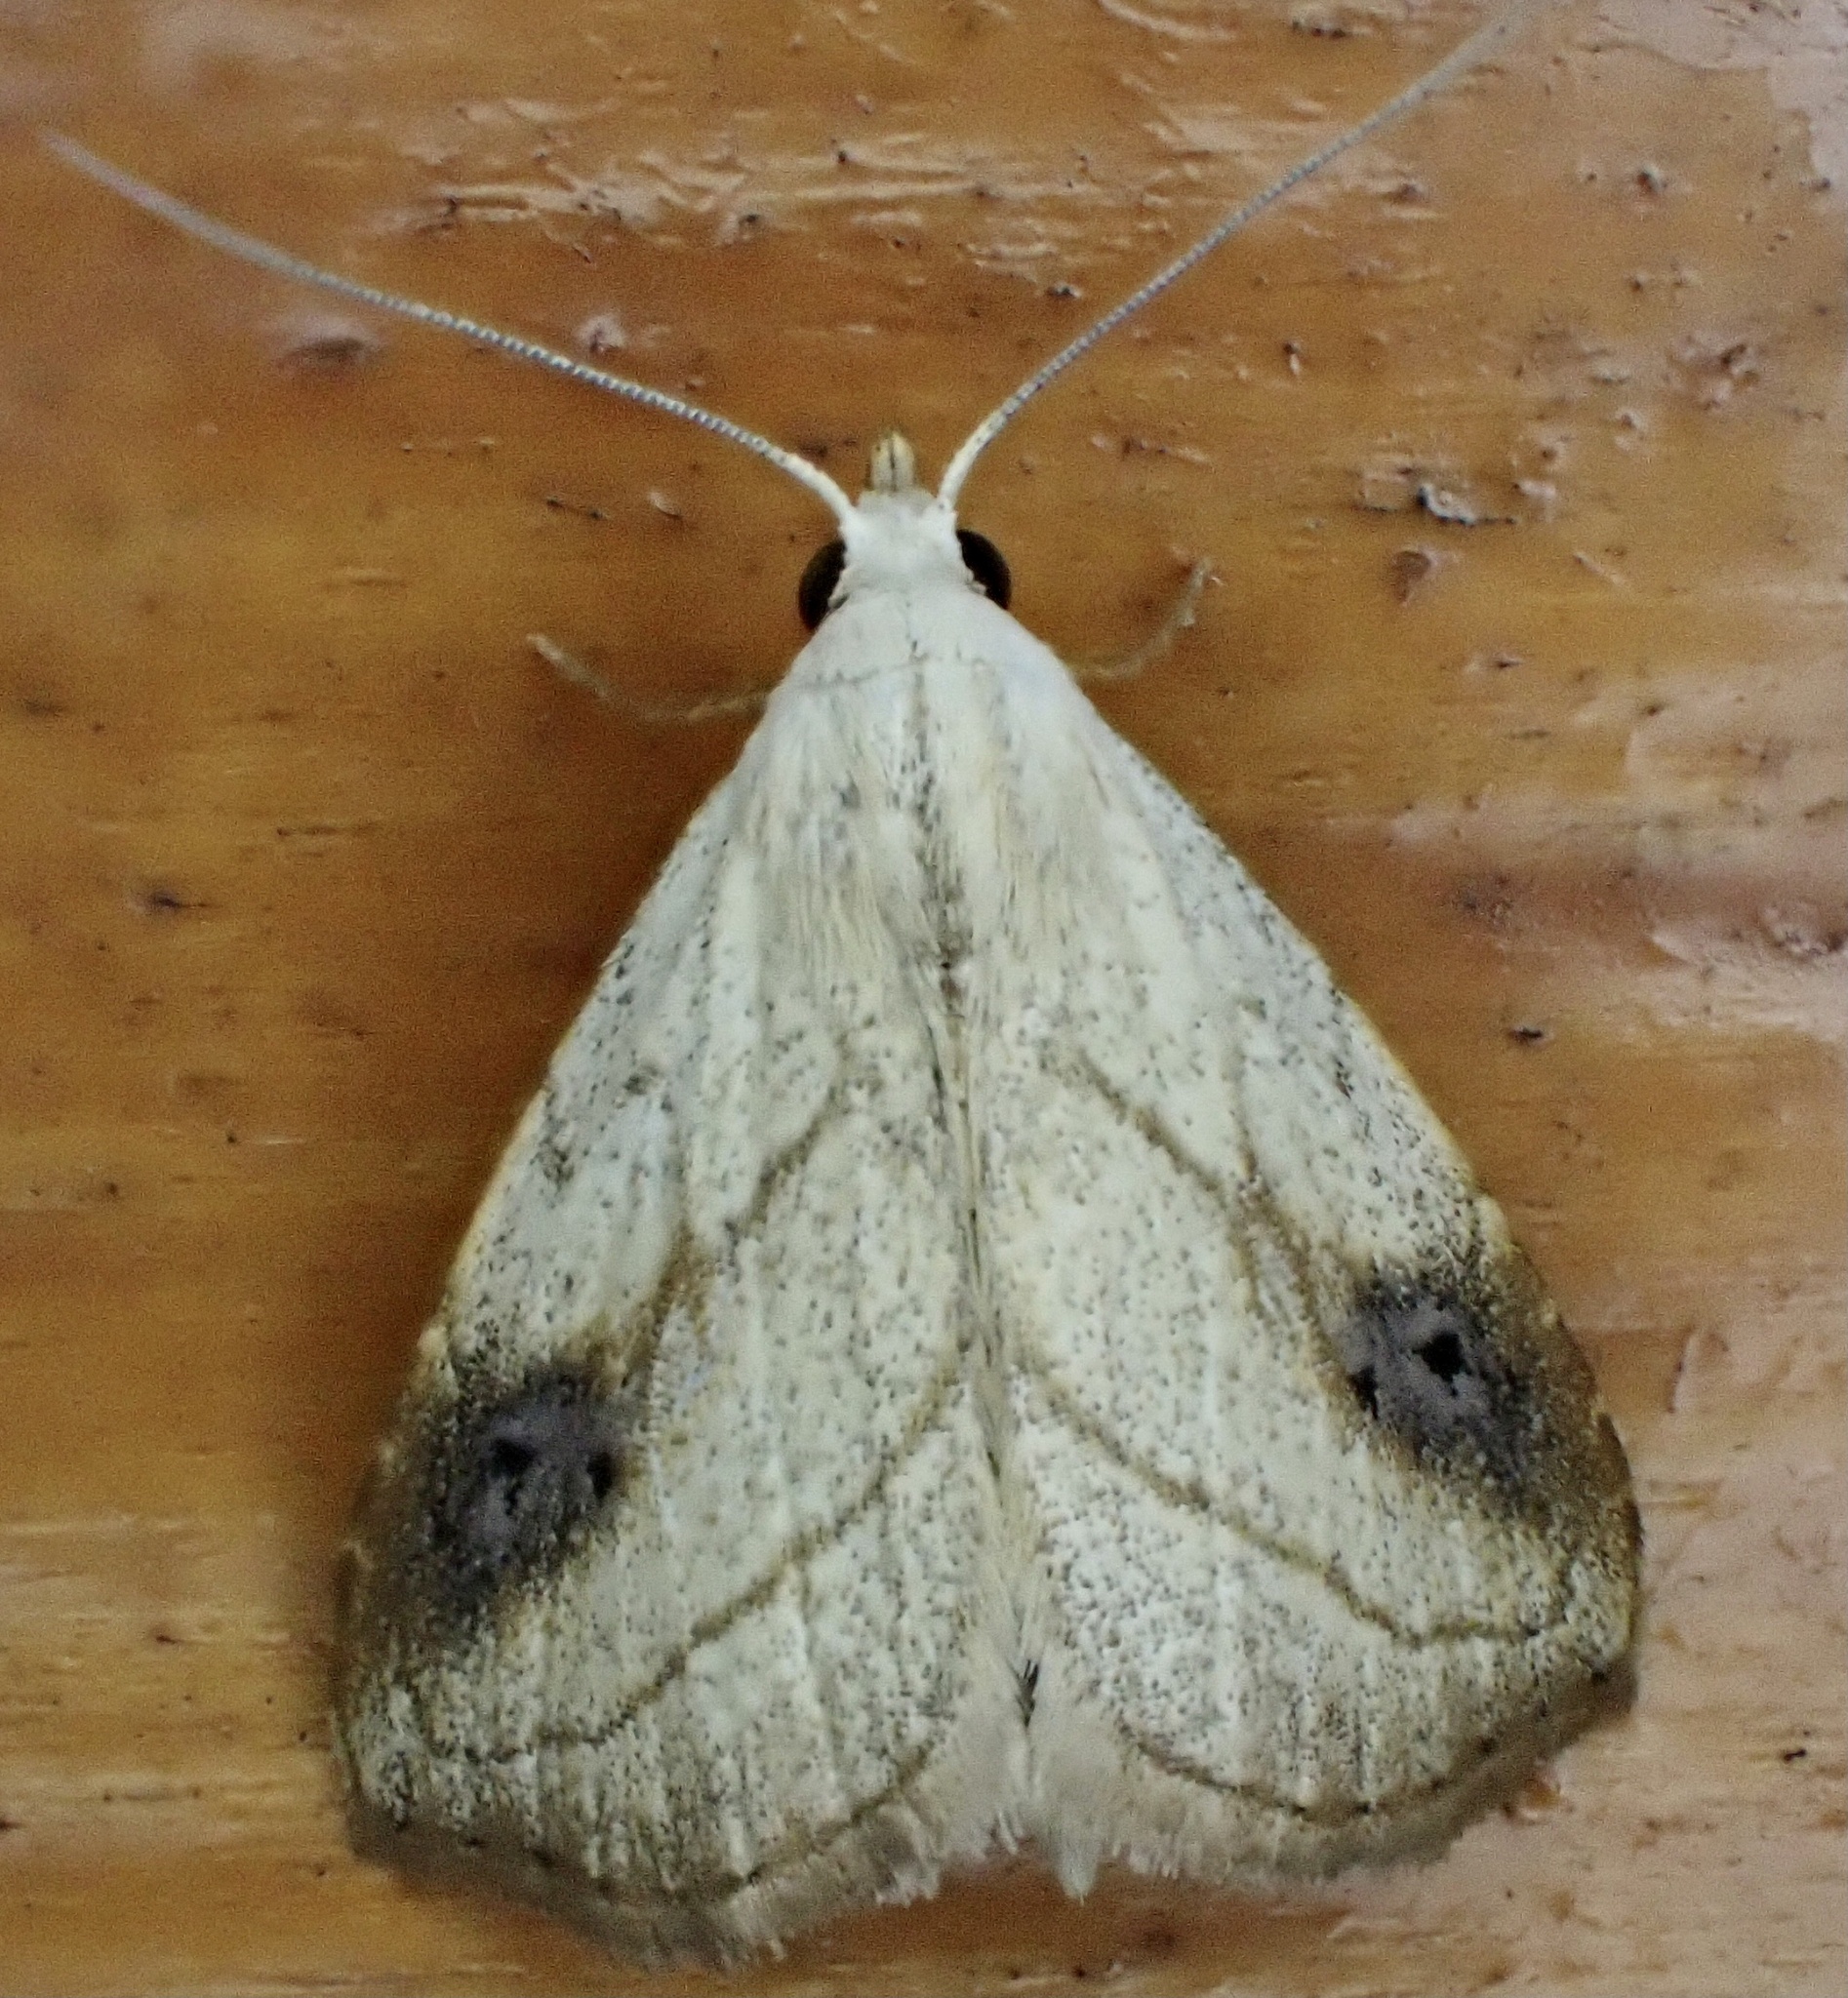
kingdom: Animalia
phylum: Arthropoda
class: Insecta
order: Lepidoptera
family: Erebidae
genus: Rivula
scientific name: Rivula propinqualis
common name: Spotted grass moth
